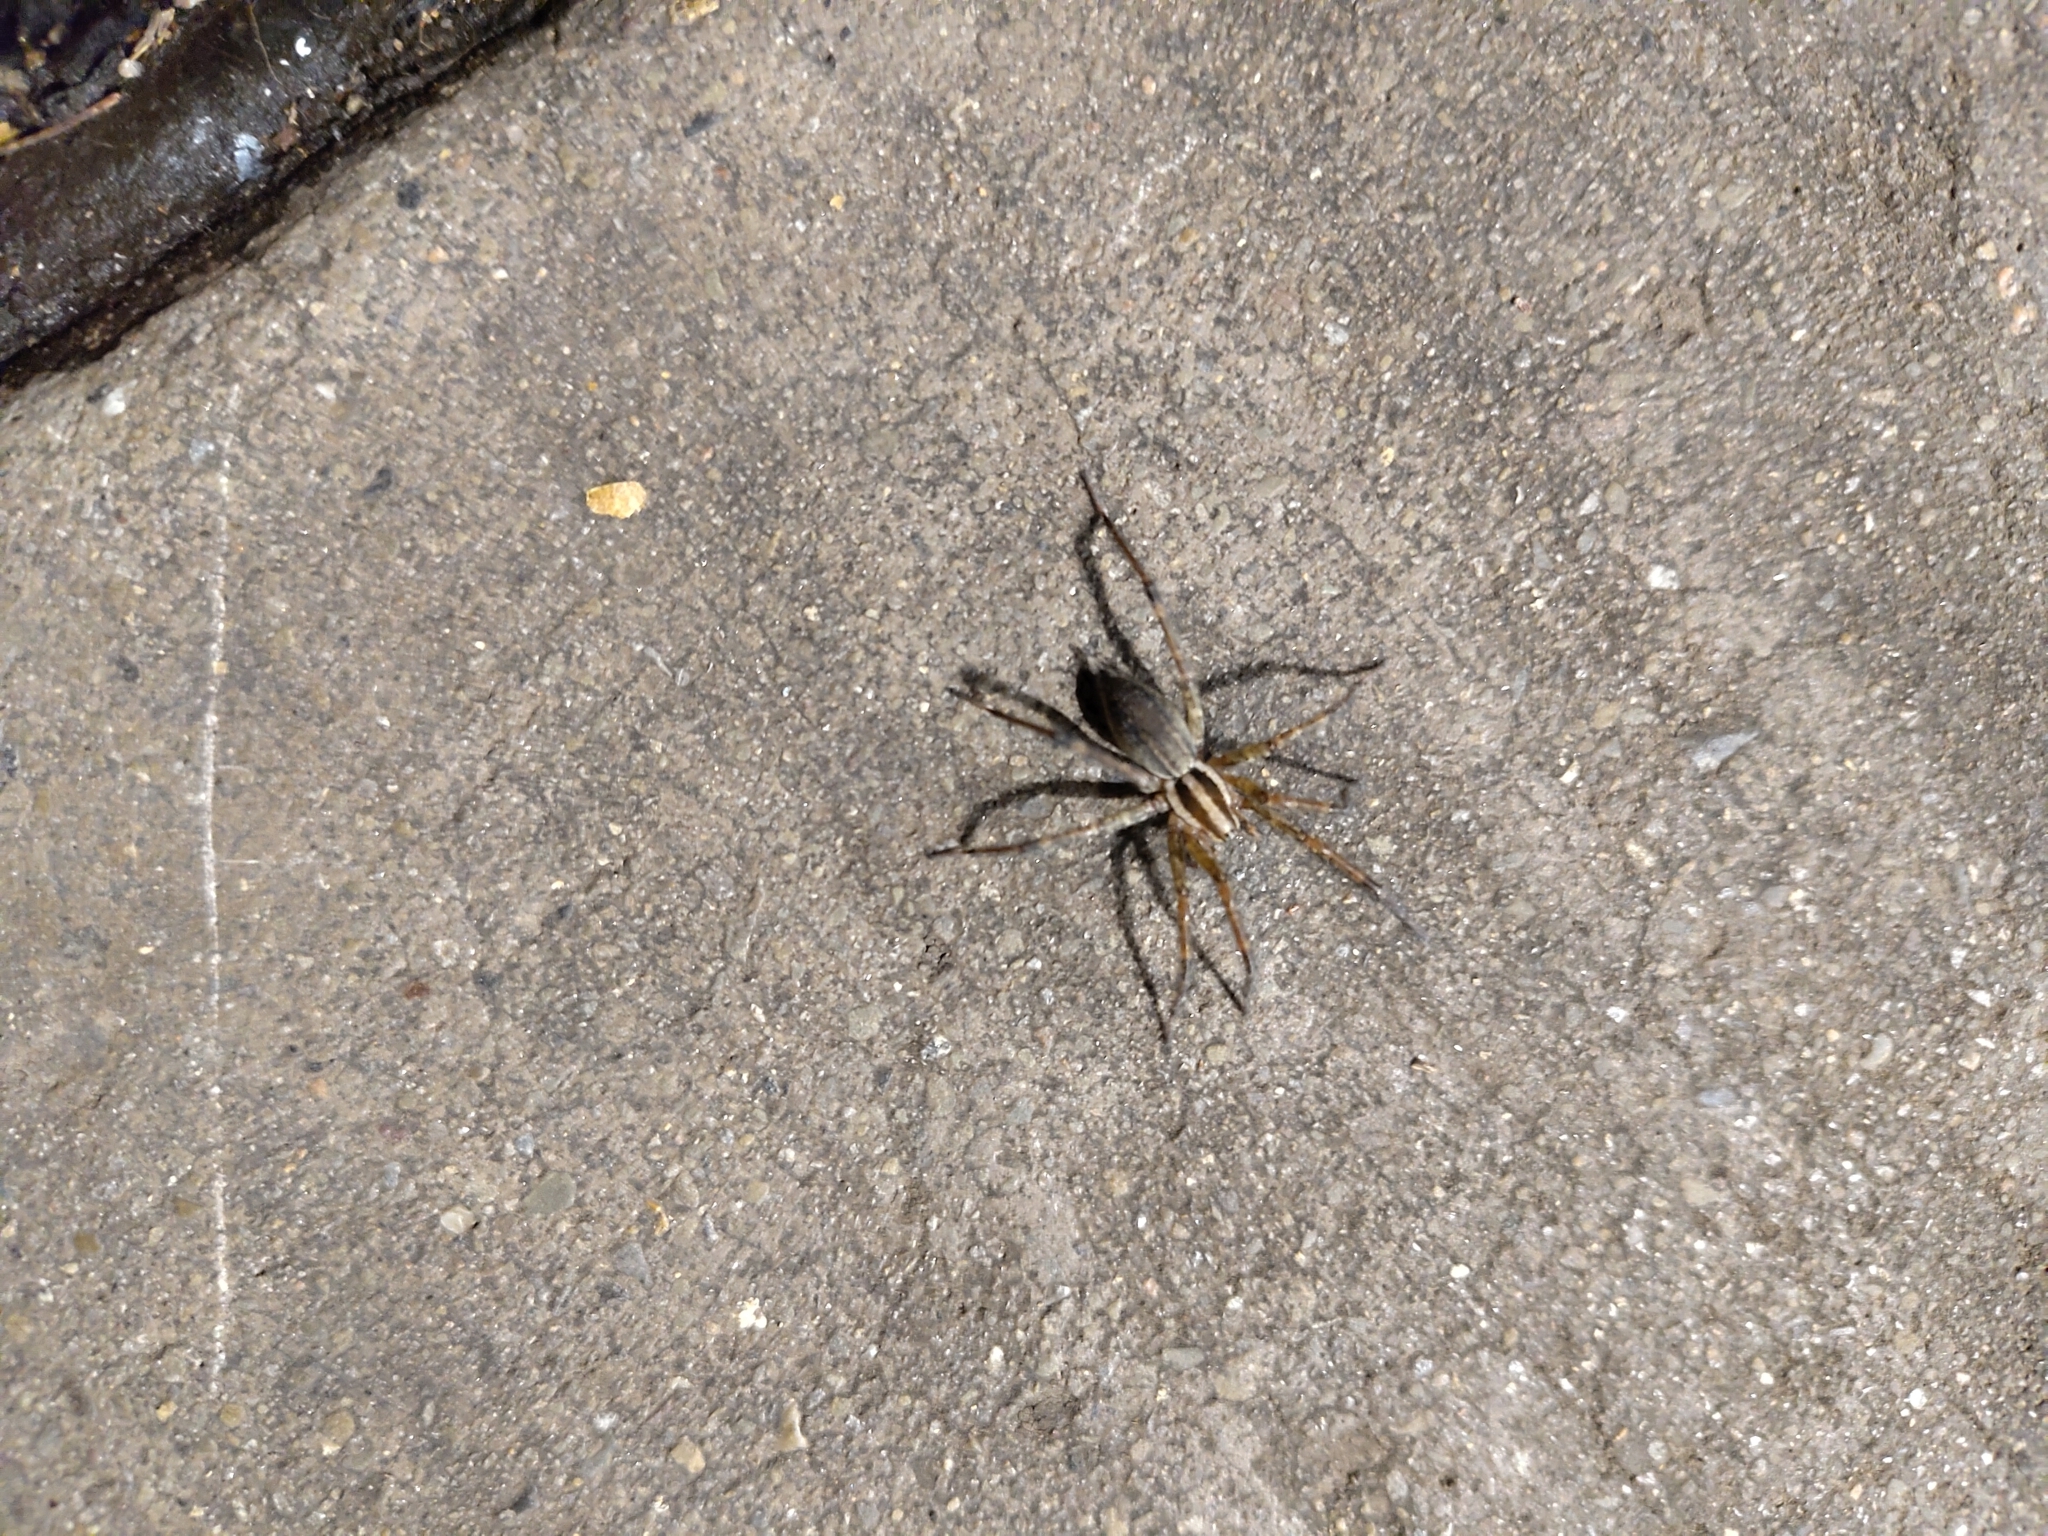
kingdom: Animalia
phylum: Arthropoda
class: Arachnida
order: Araneae
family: Agelenidae
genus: Agelenopsis
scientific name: Agelenopsis
